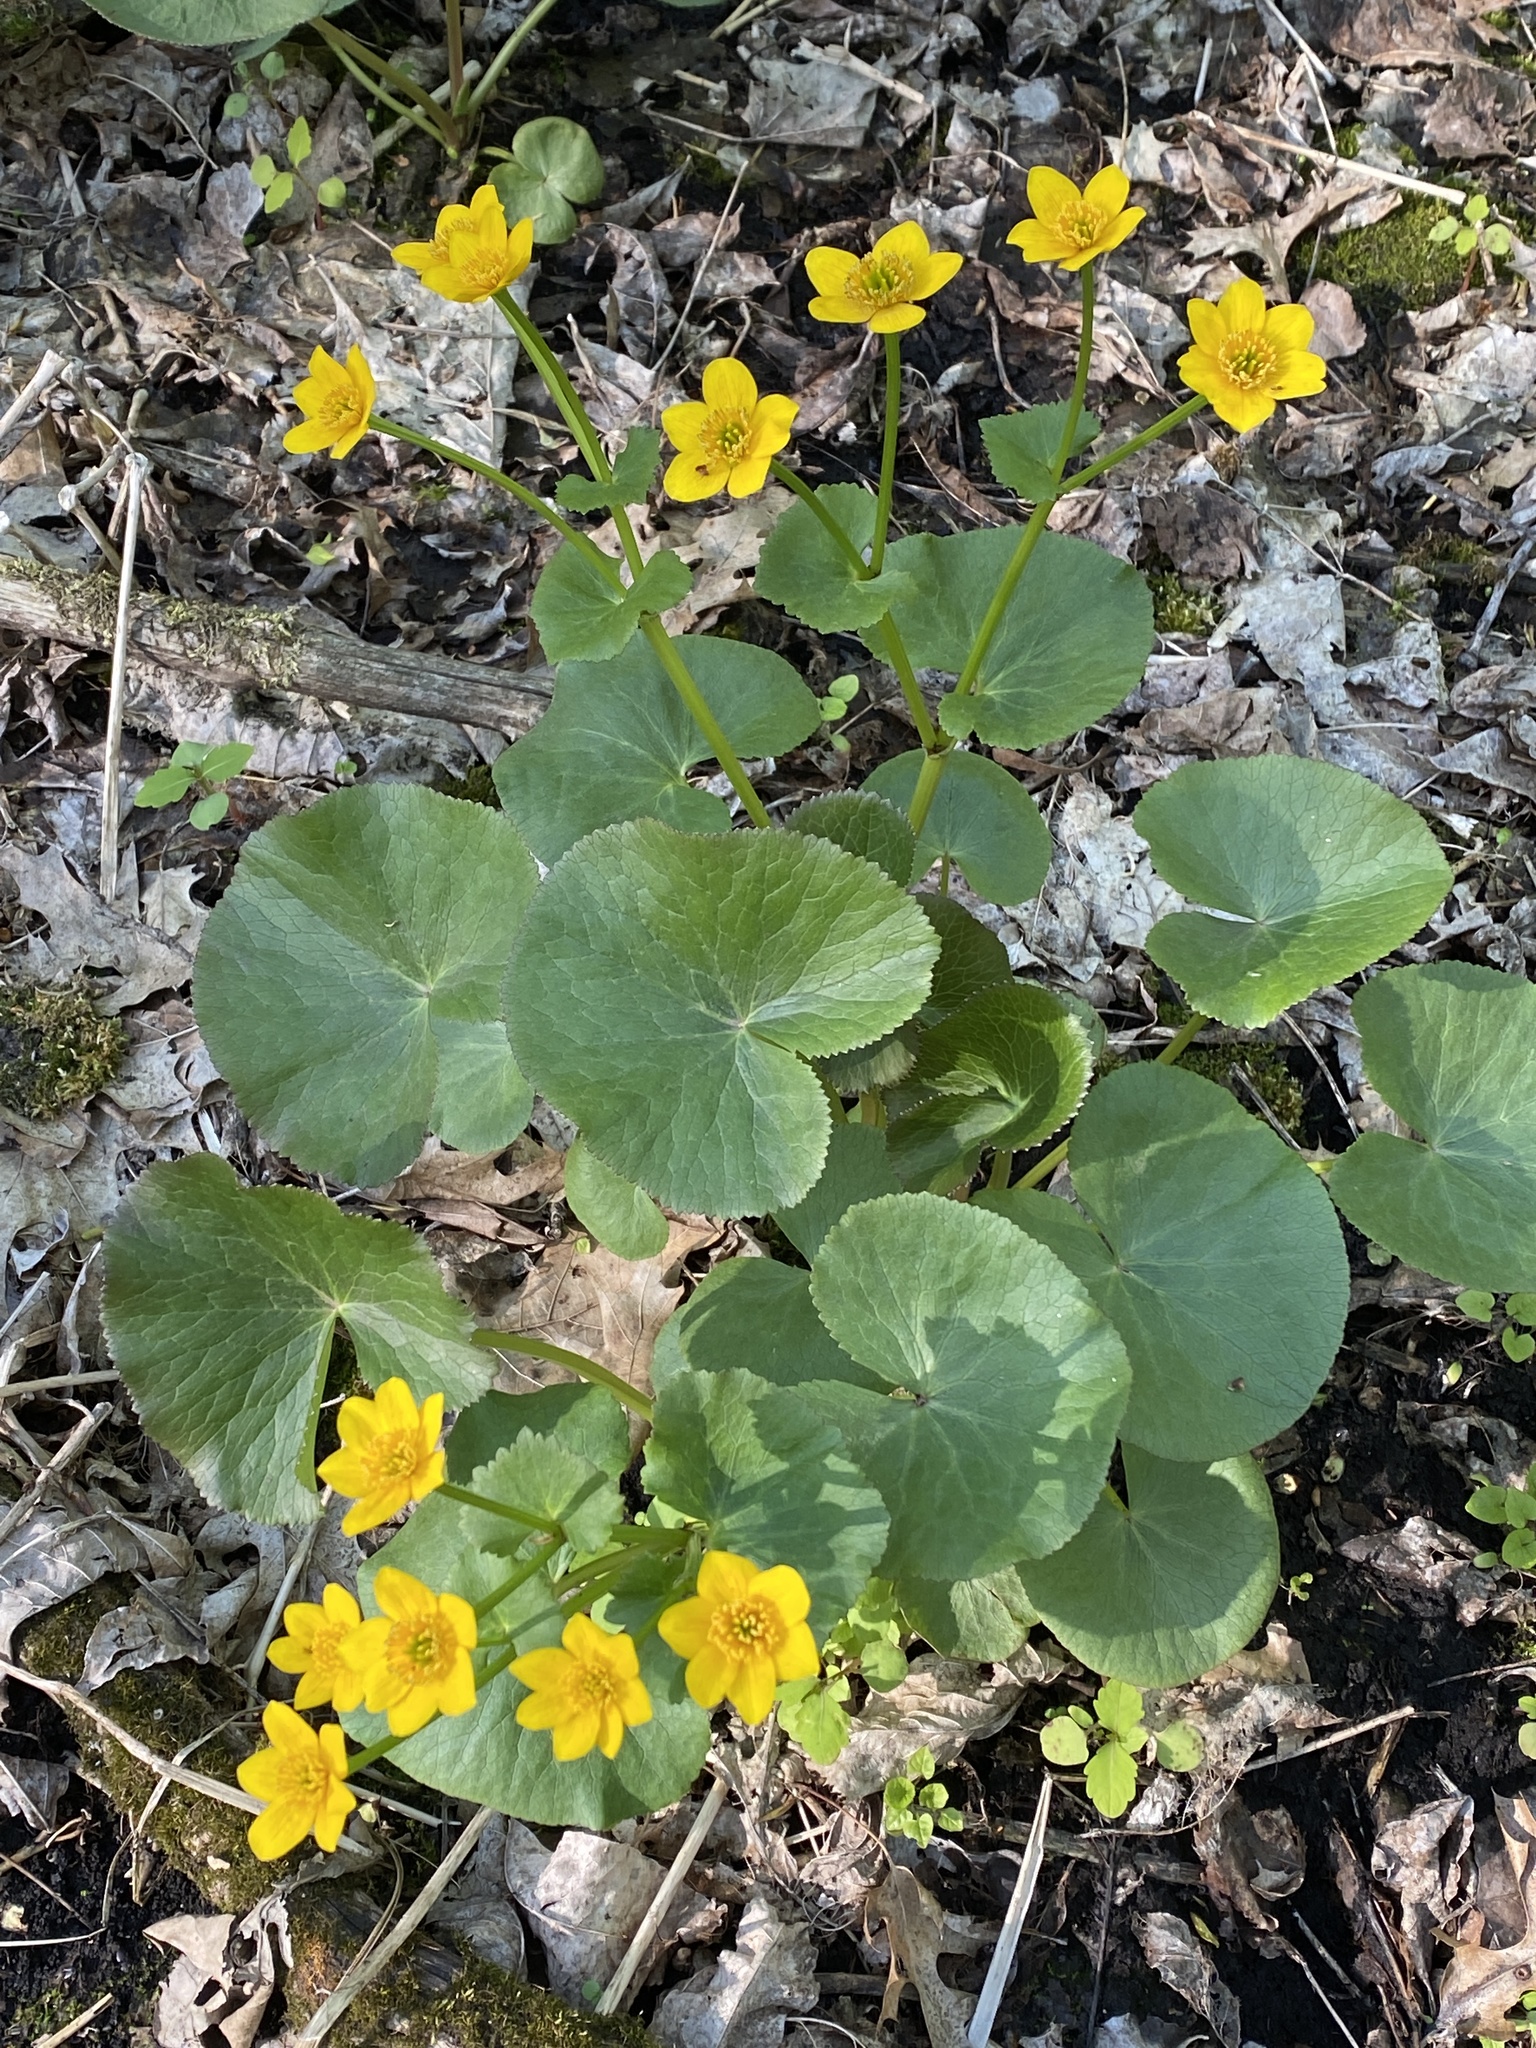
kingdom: Plantae
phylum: Tracheophyta
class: Magnoliopsida
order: Ranunculales
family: Ranunculaceae
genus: Caltha
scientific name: Caltha palustris
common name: Marsh marigold
